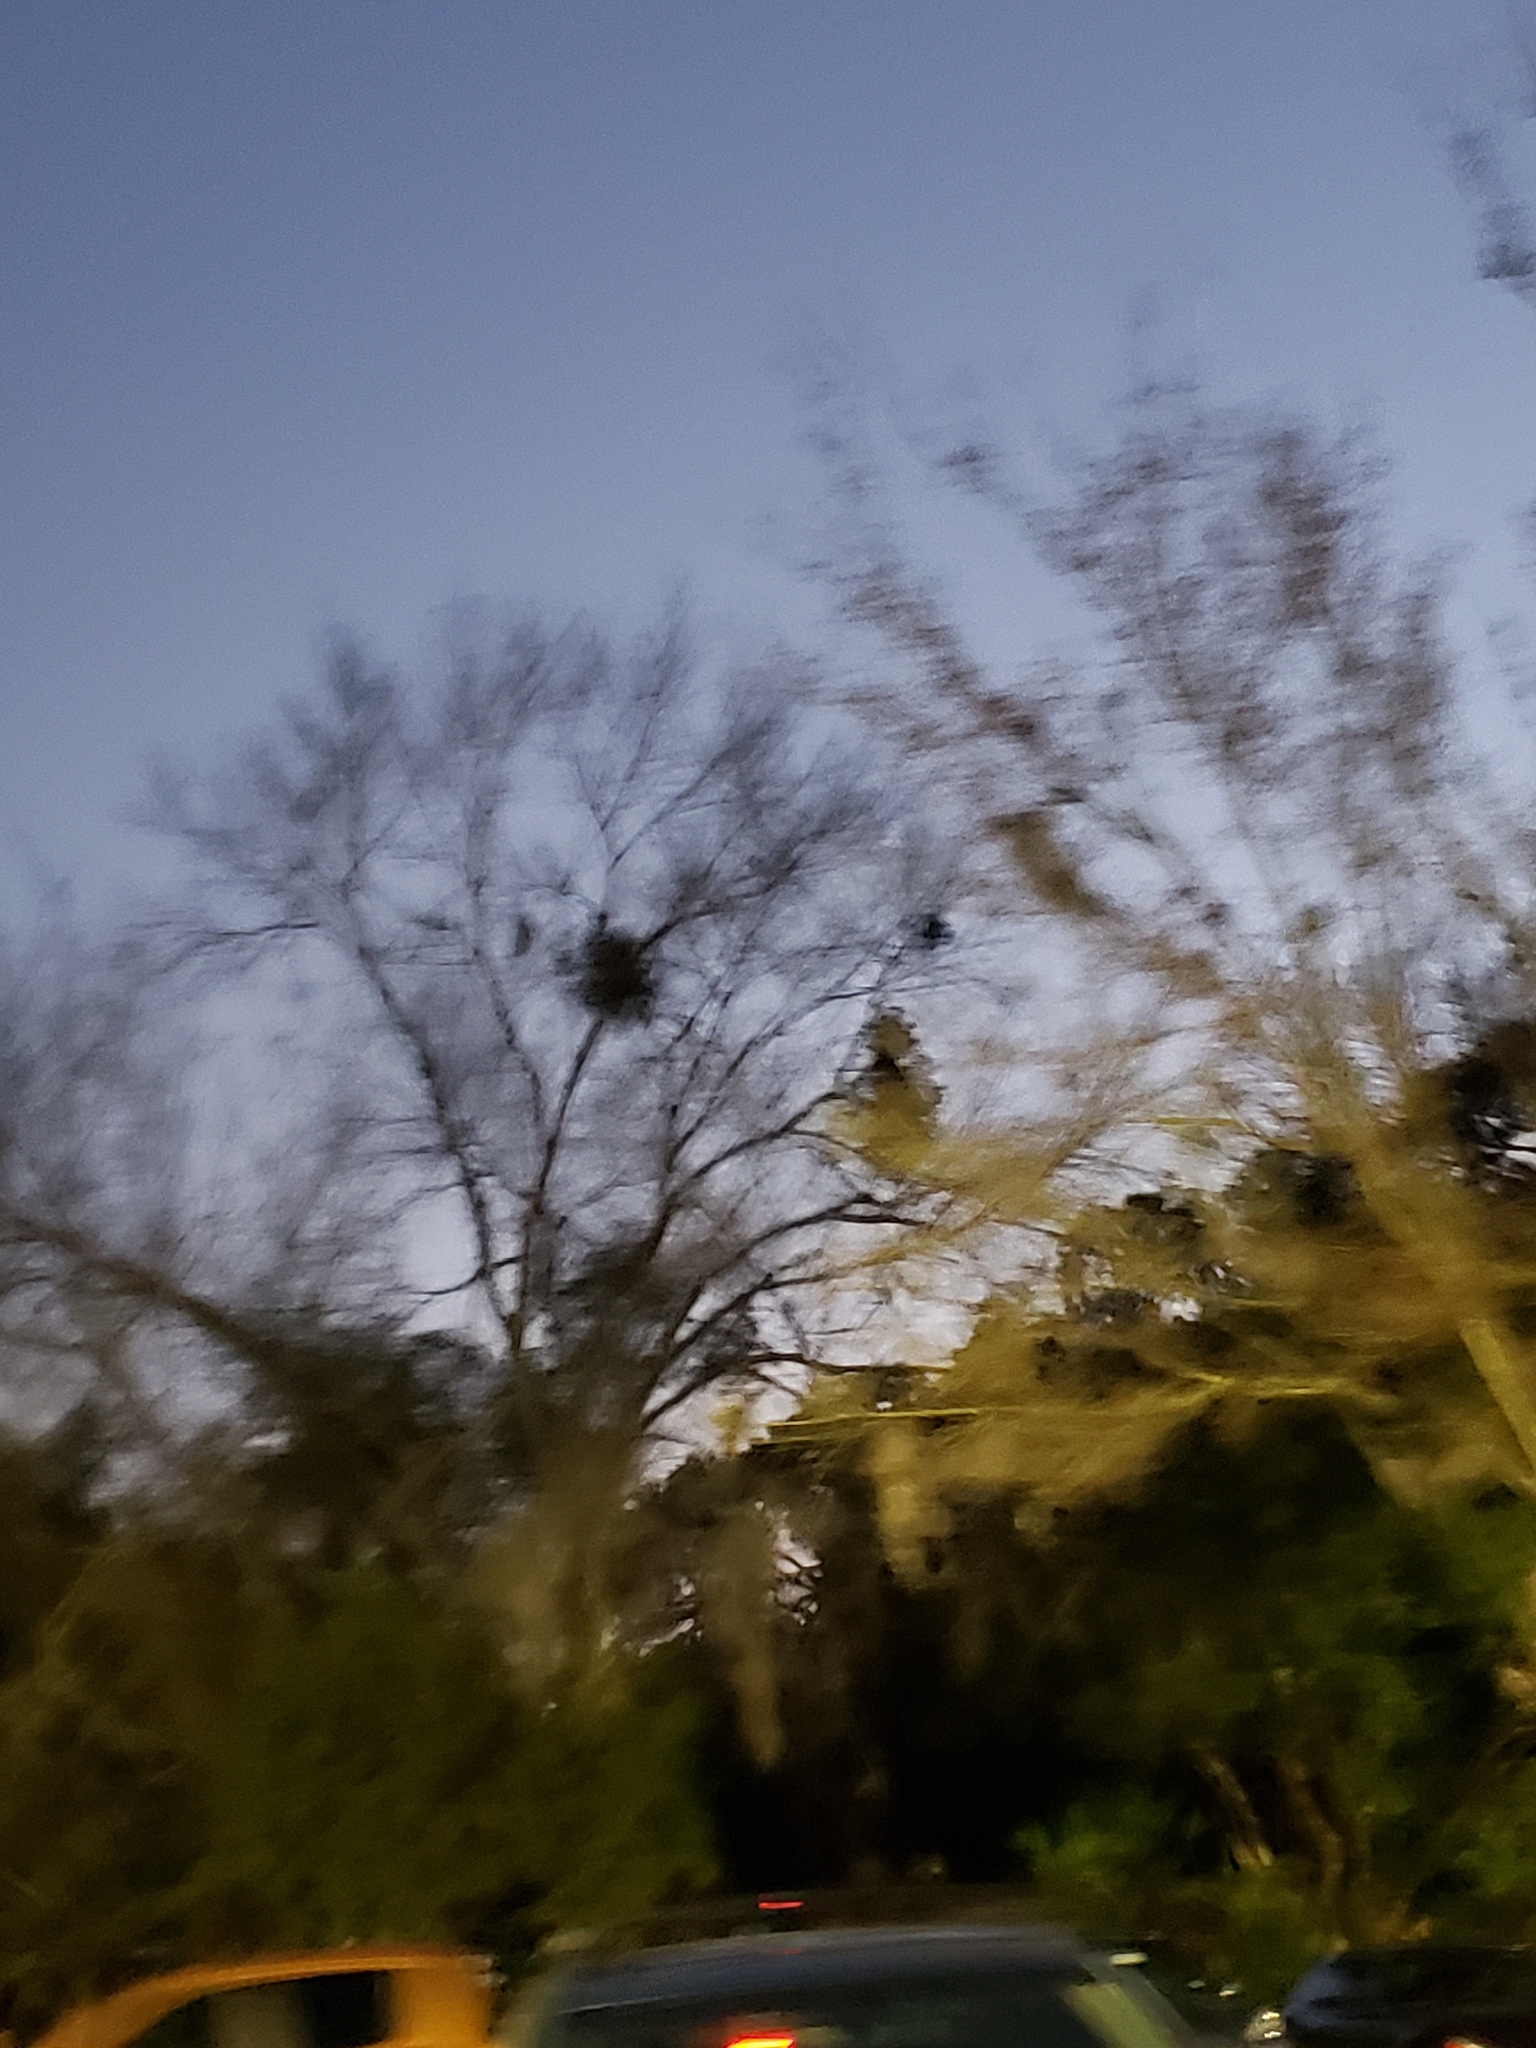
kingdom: Plantae
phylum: Tracheophyta
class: Magnoliopsida
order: Santalales
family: Viscaceae
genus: Phoradendron
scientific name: Phoradendron leucarpum
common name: Pacific mistletoe
